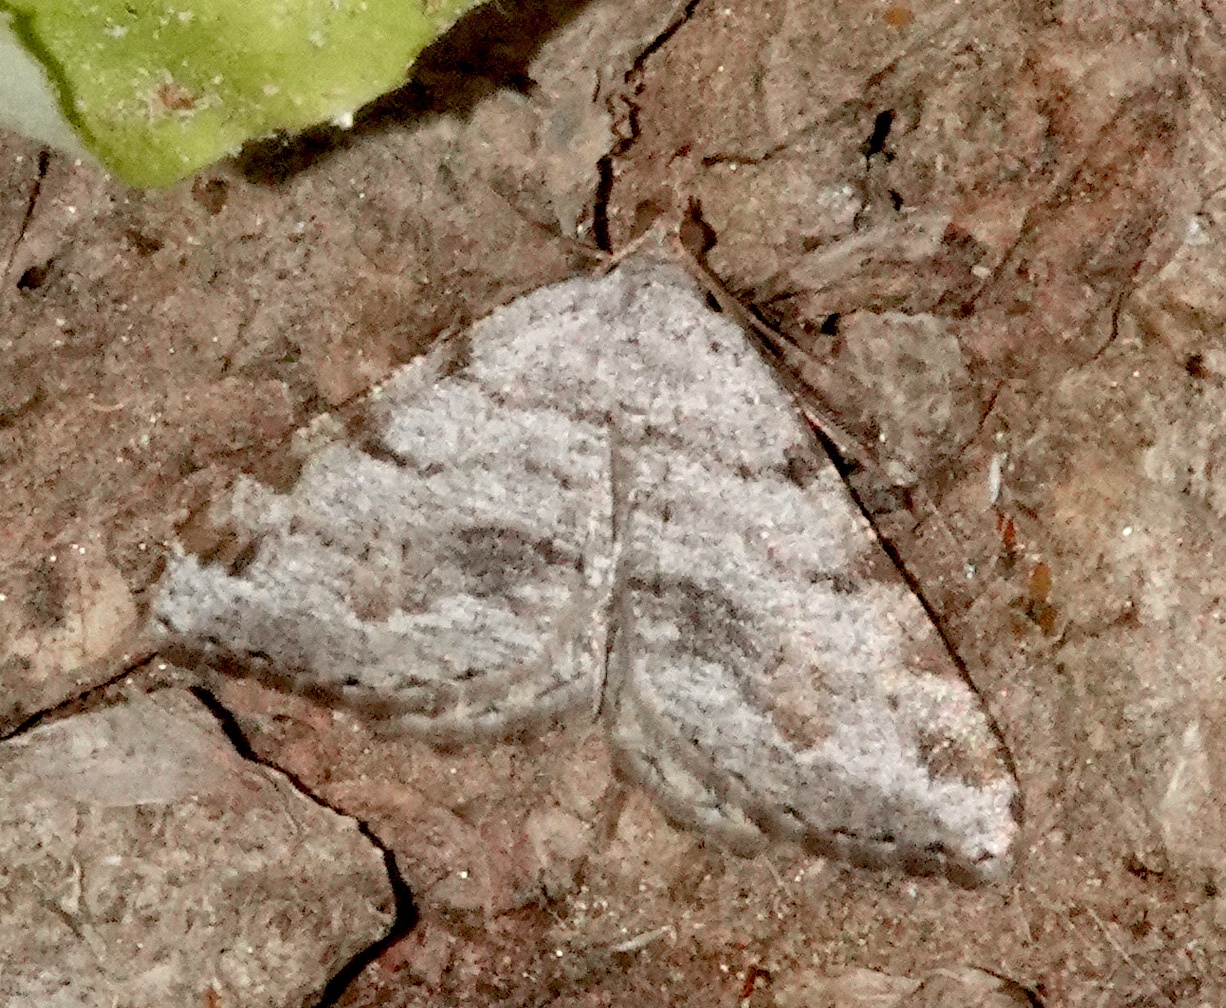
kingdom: Animalia
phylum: Arthropoda
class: Insecta
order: Lepidoptera
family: Geometridae
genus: Macaria
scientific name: Macaria quadrilinearia
